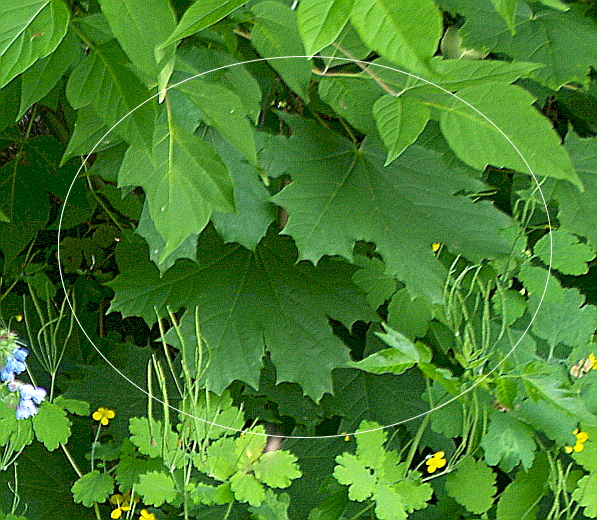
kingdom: Plantae
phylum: Tracheophyta
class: Magnoliopsida
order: Sapindales
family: Sapindaceae
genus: Acer
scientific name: Acer platanoides
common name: Norway maple
